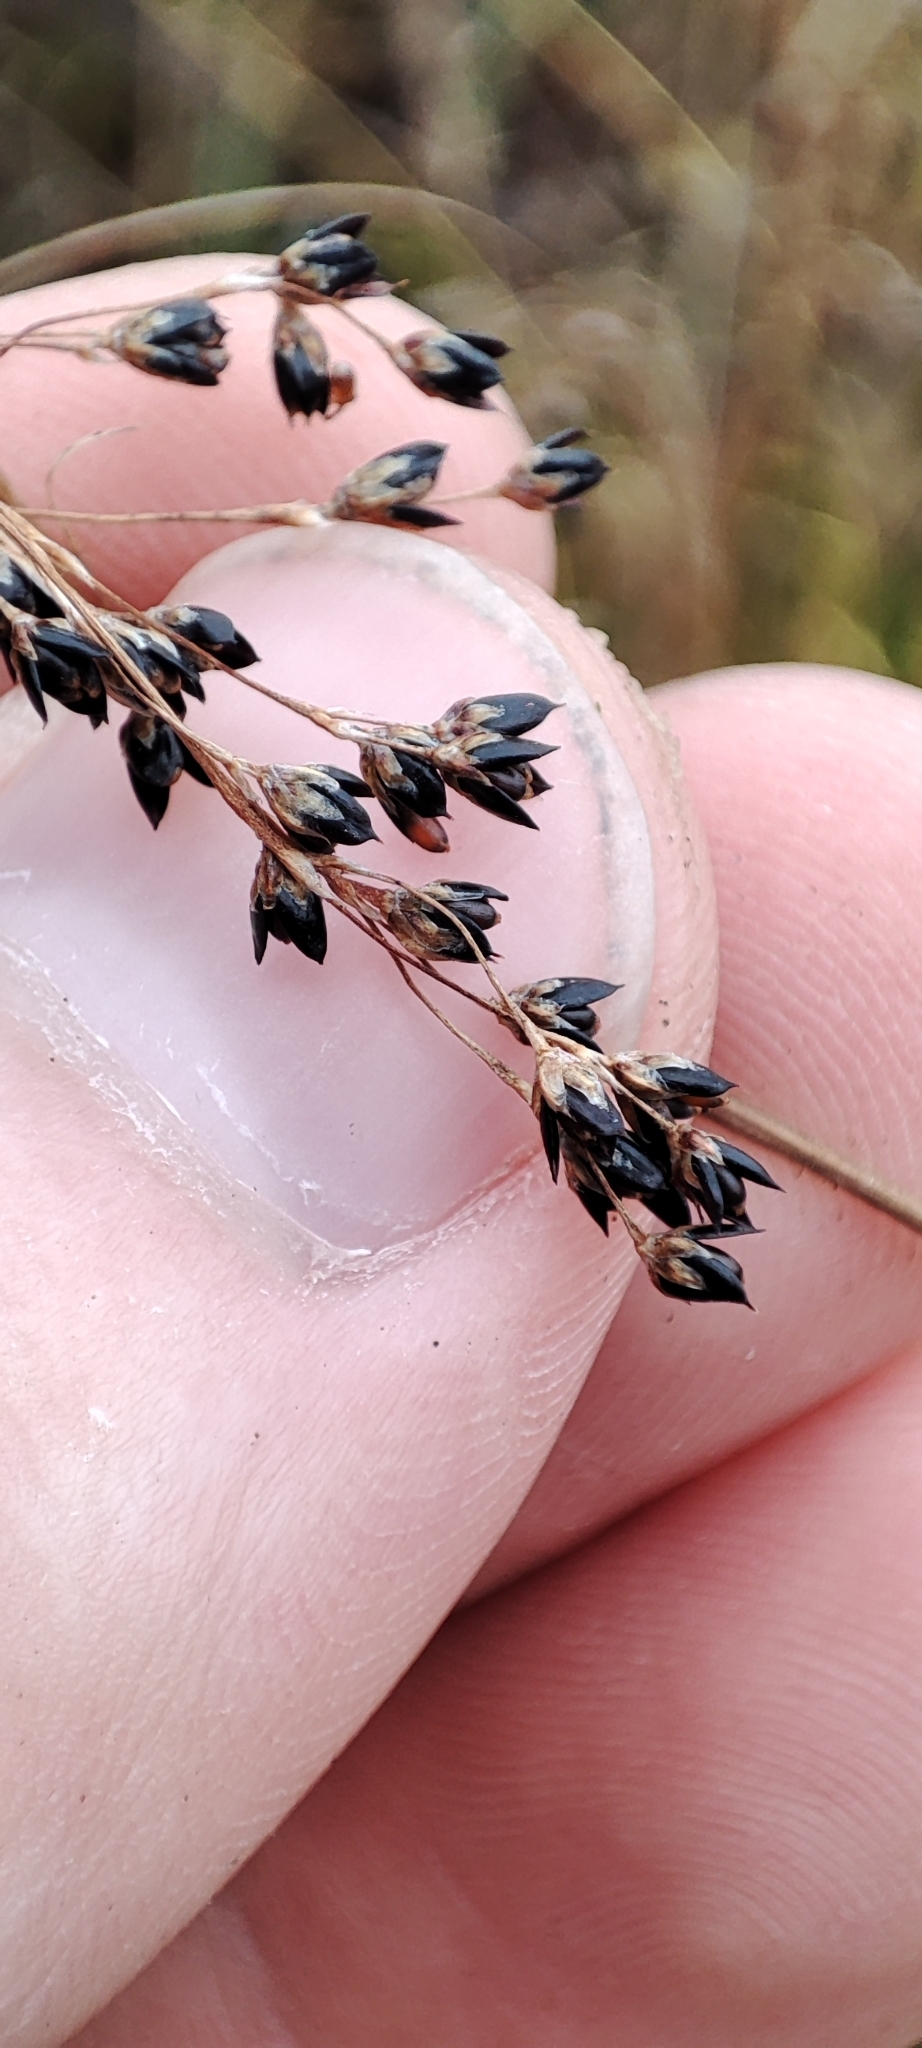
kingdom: Plantae
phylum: Tracheophyta
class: Liliopsida
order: Poales
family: Juncaceae
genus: Luzula
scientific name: Luzula parviflora
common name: Millet woodrush
